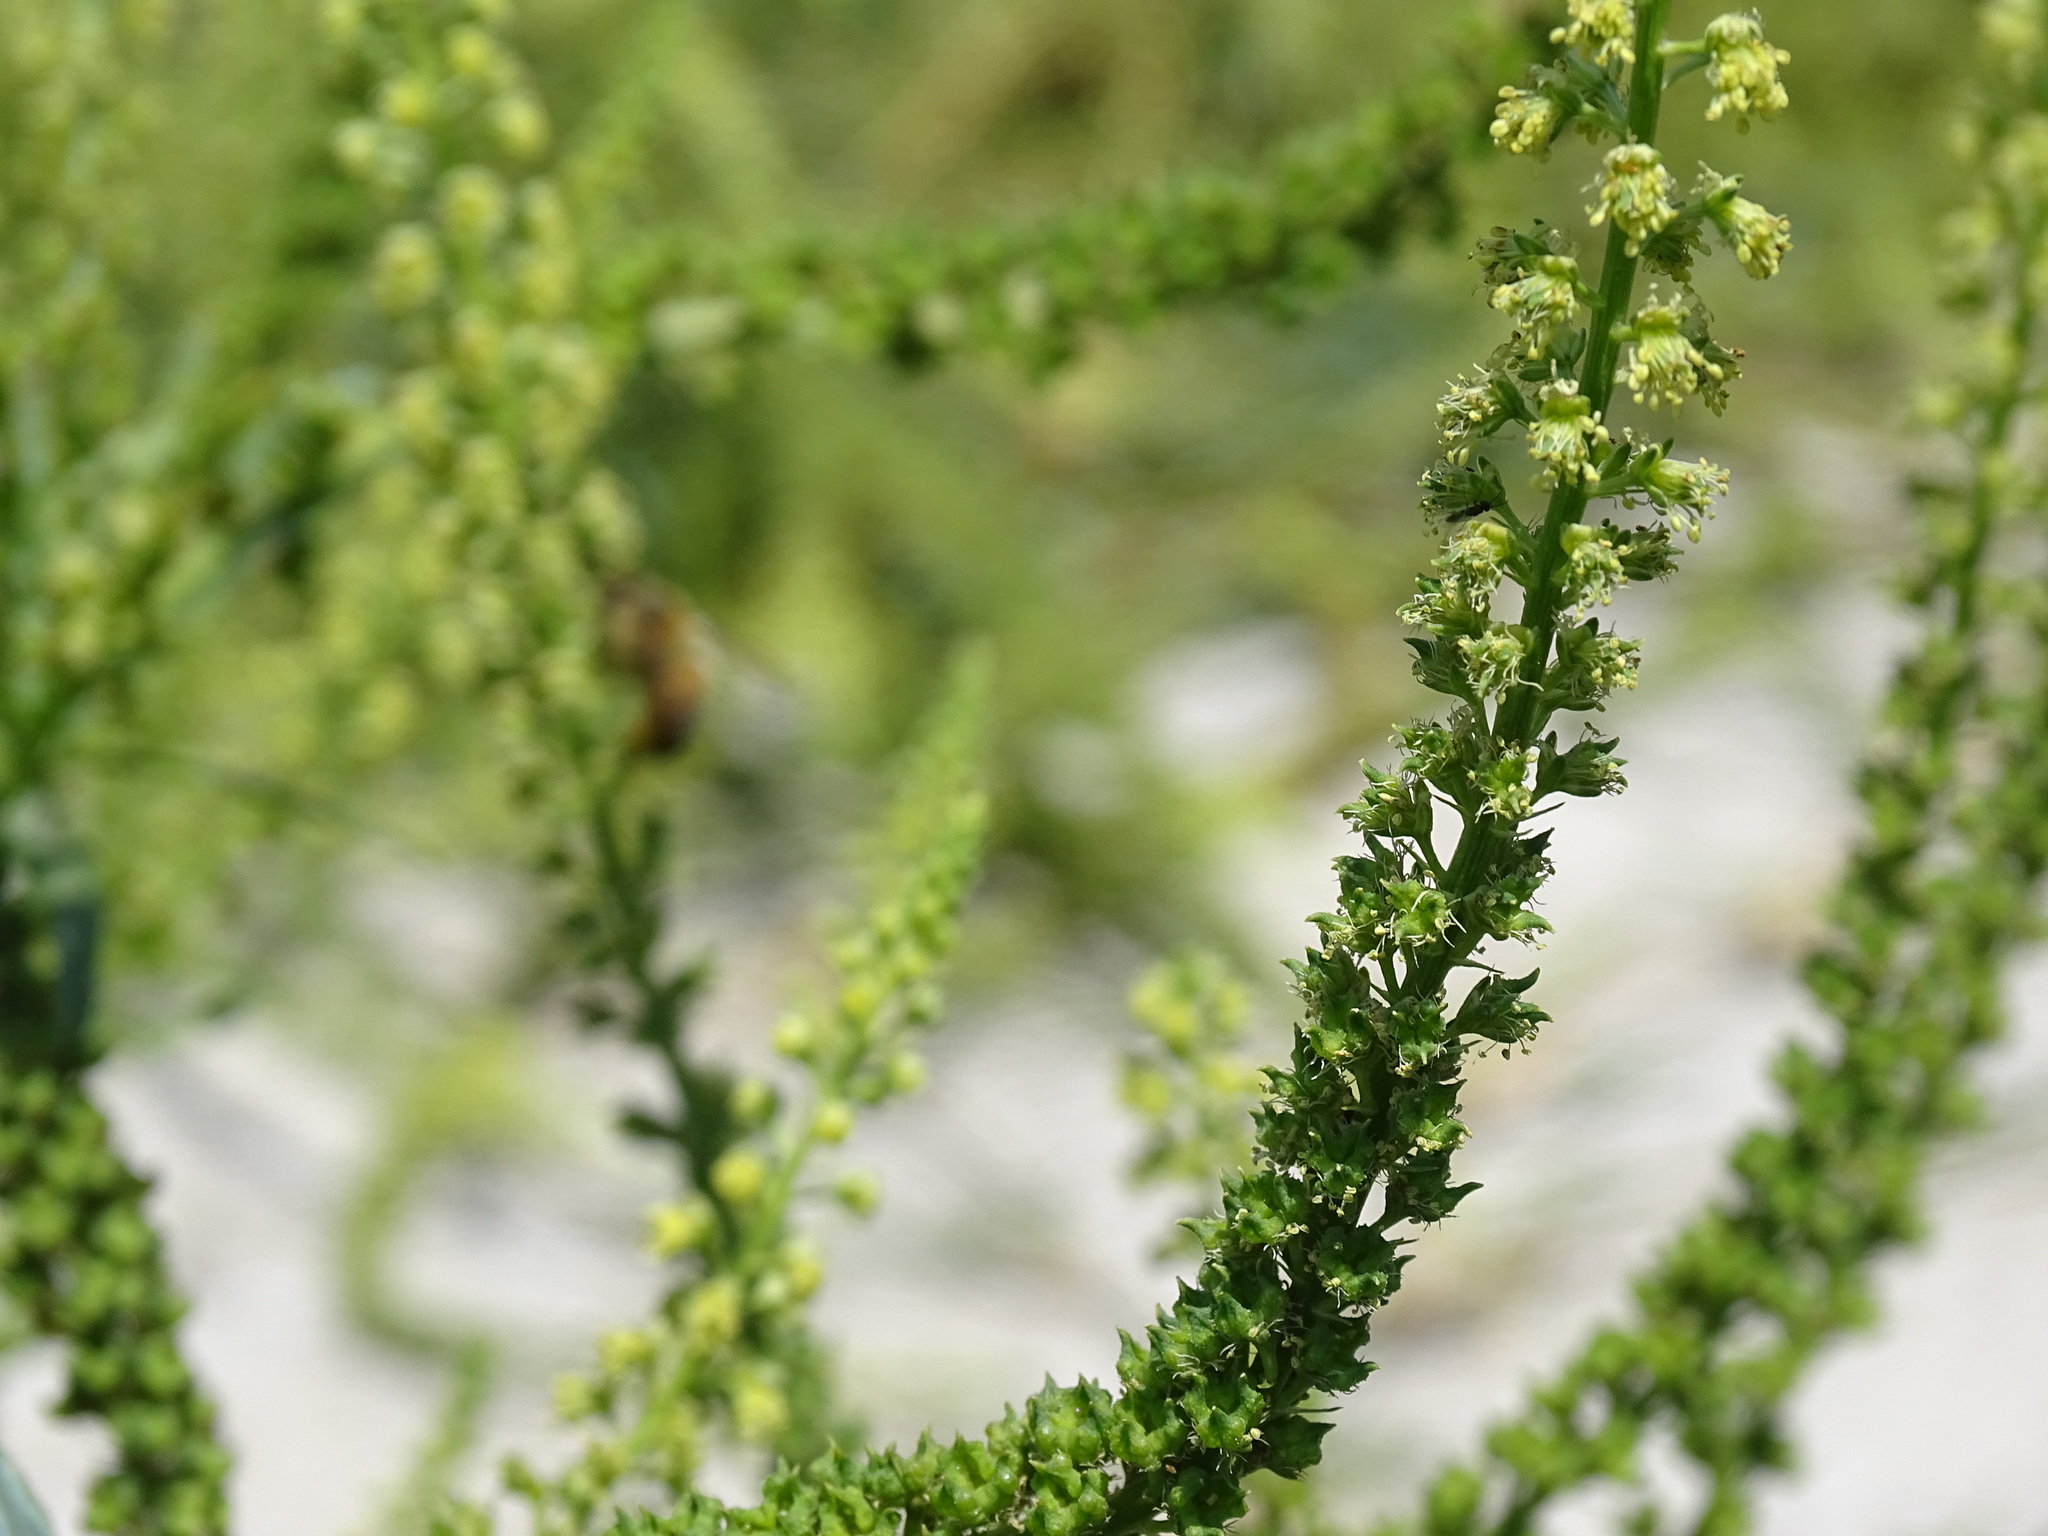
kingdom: Plantae
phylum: Tracheophyta
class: Magnoliopsida
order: Brassicales
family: Resedaceae
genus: Reseda
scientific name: Reseda luteola
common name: Weld
